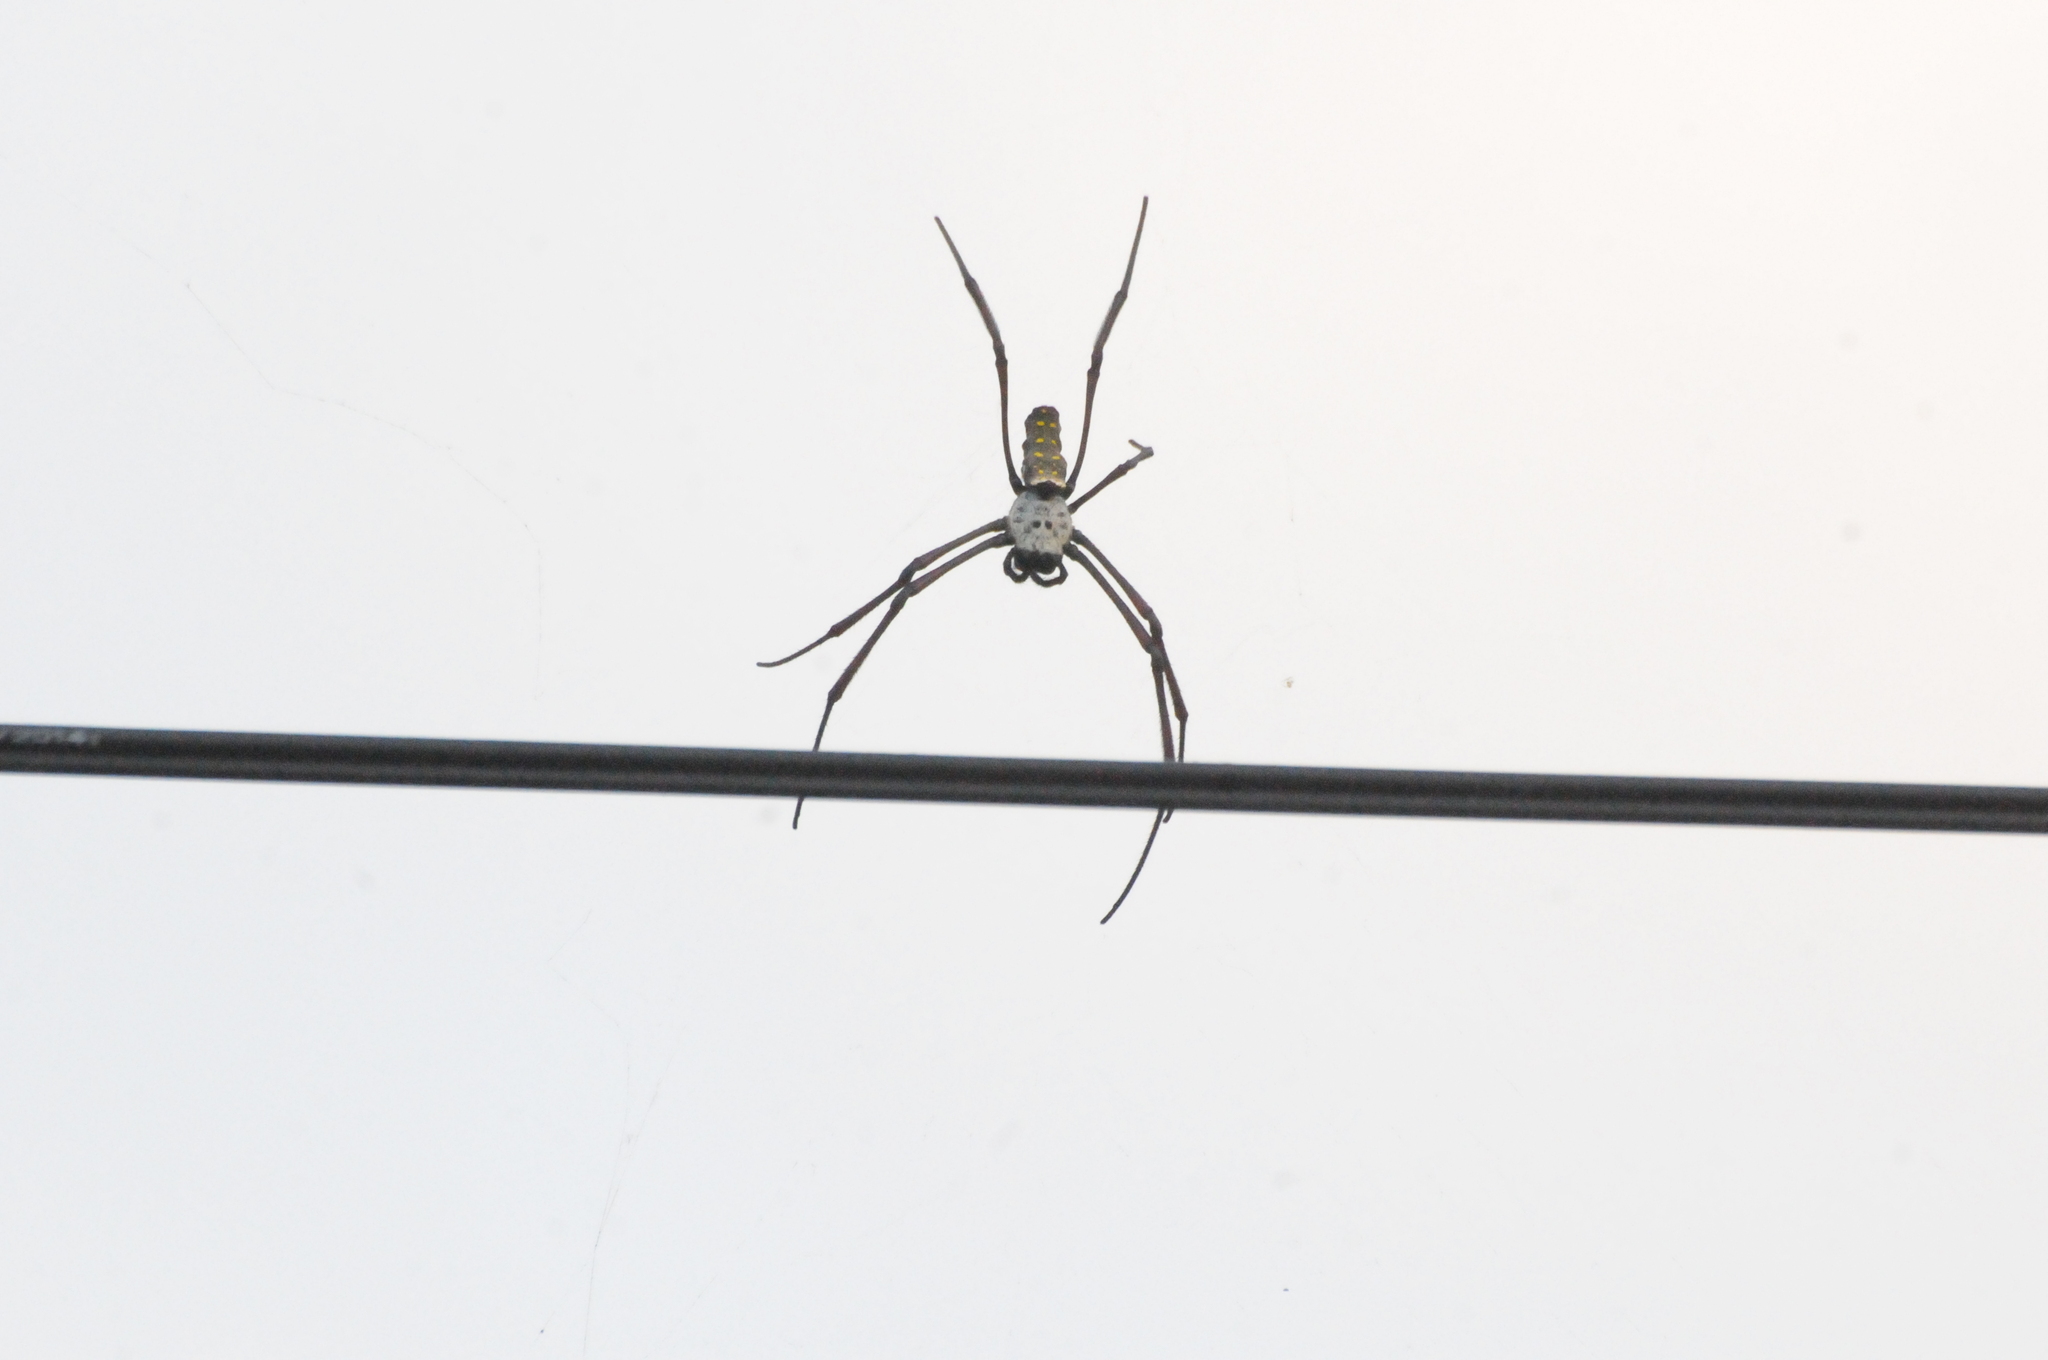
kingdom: Animalia
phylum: Arthropoda
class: Arachnida
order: Araneae
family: Araneidae
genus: Trichonephila
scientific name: Trichonephila antipodiana
